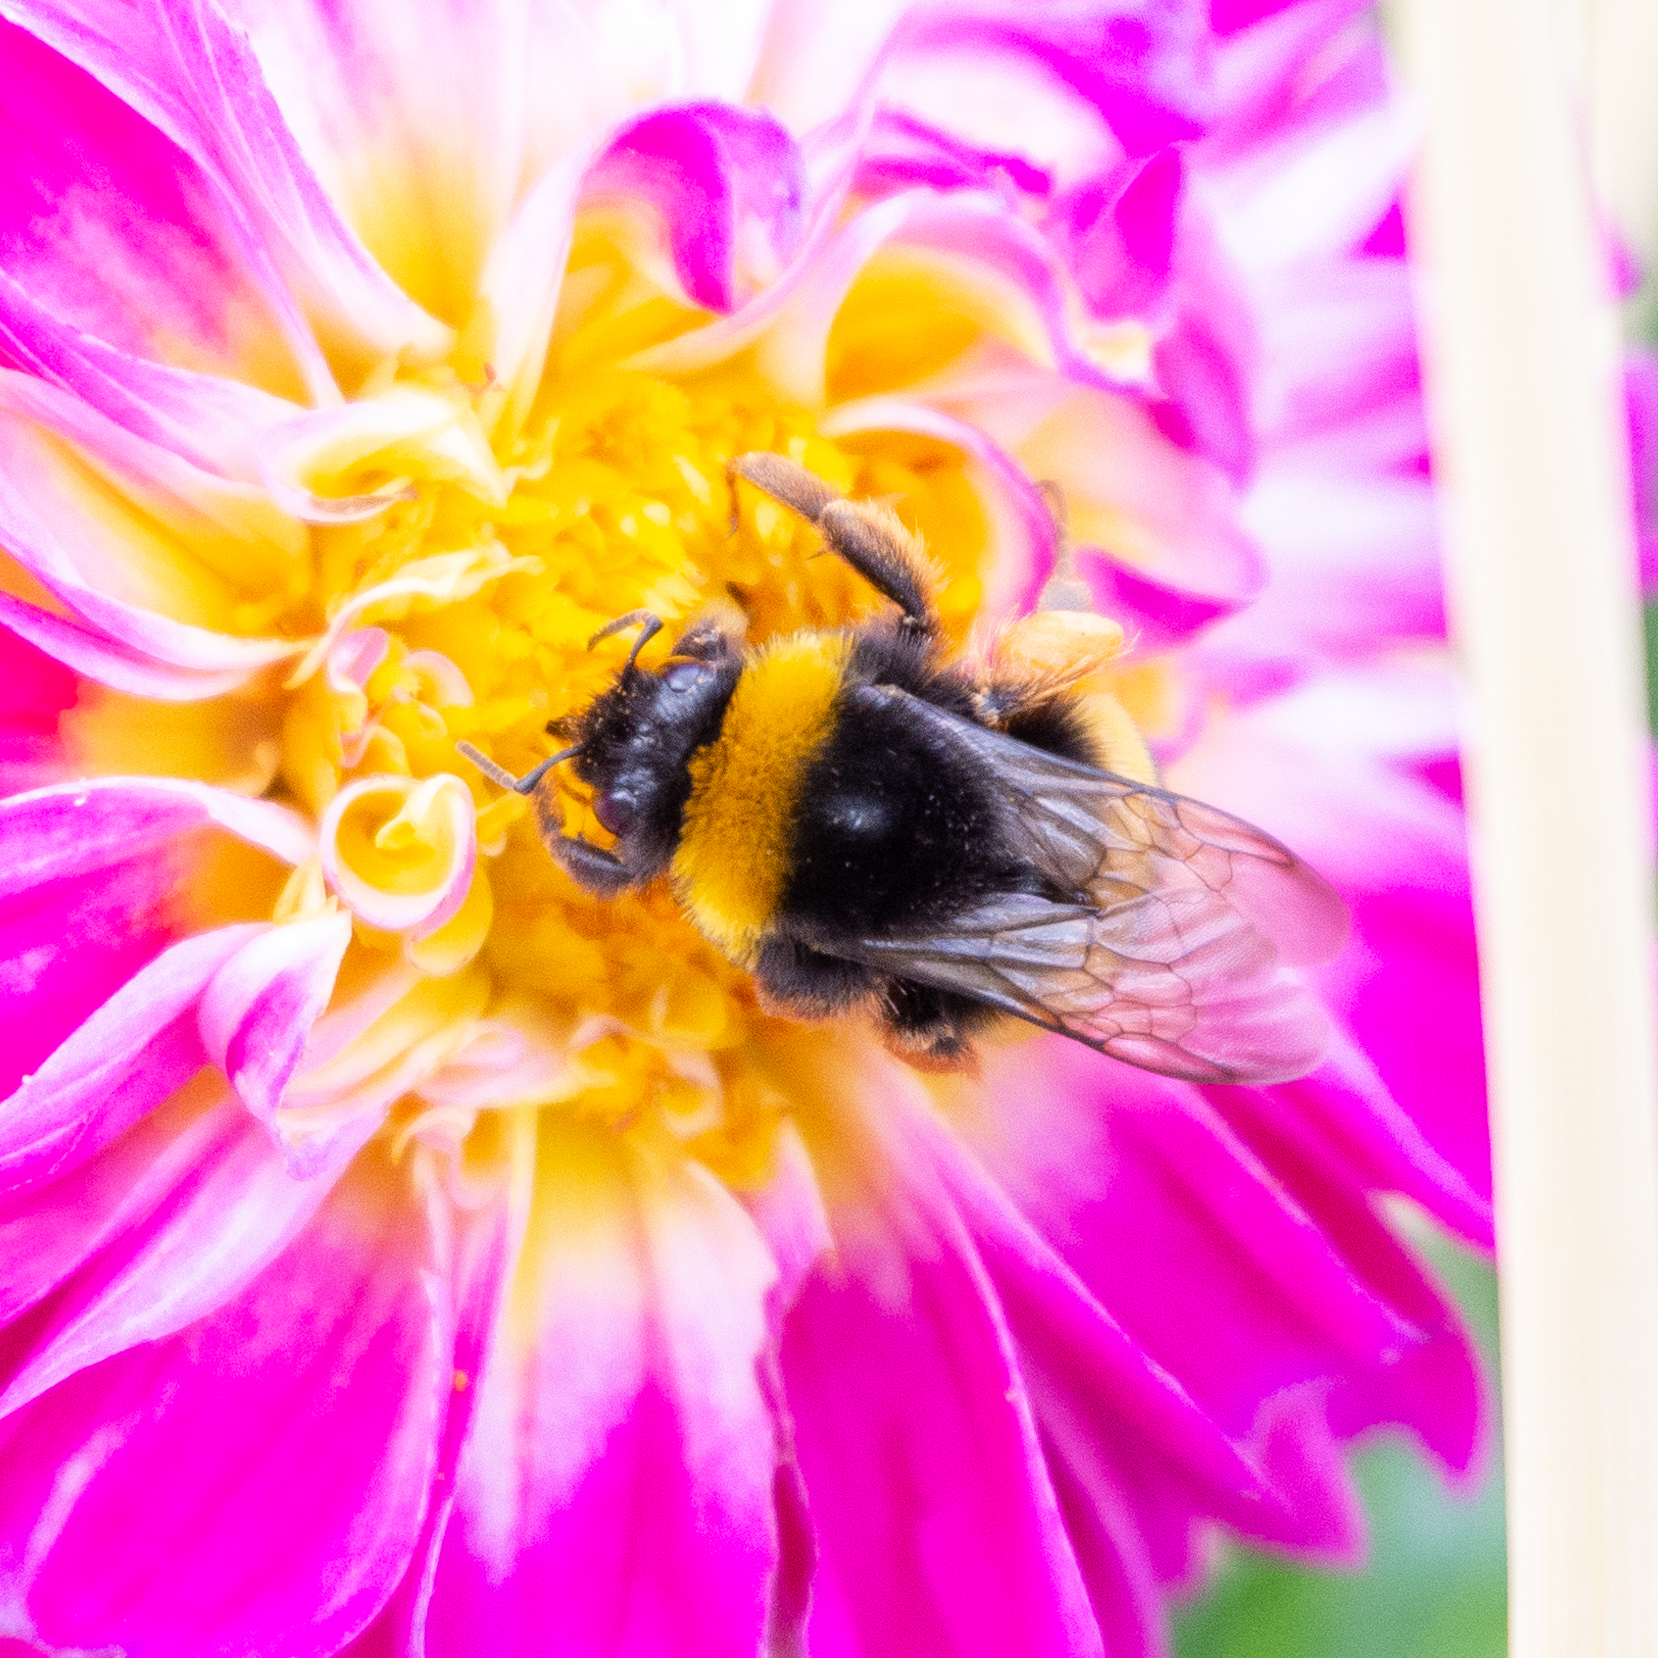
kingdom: Animalia
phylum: Arthropoda
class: Insecta
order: Hymenoptera
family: Apidae
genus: Bombus
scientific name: Bombus terrestris
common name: Buff-tailed bumblebee
